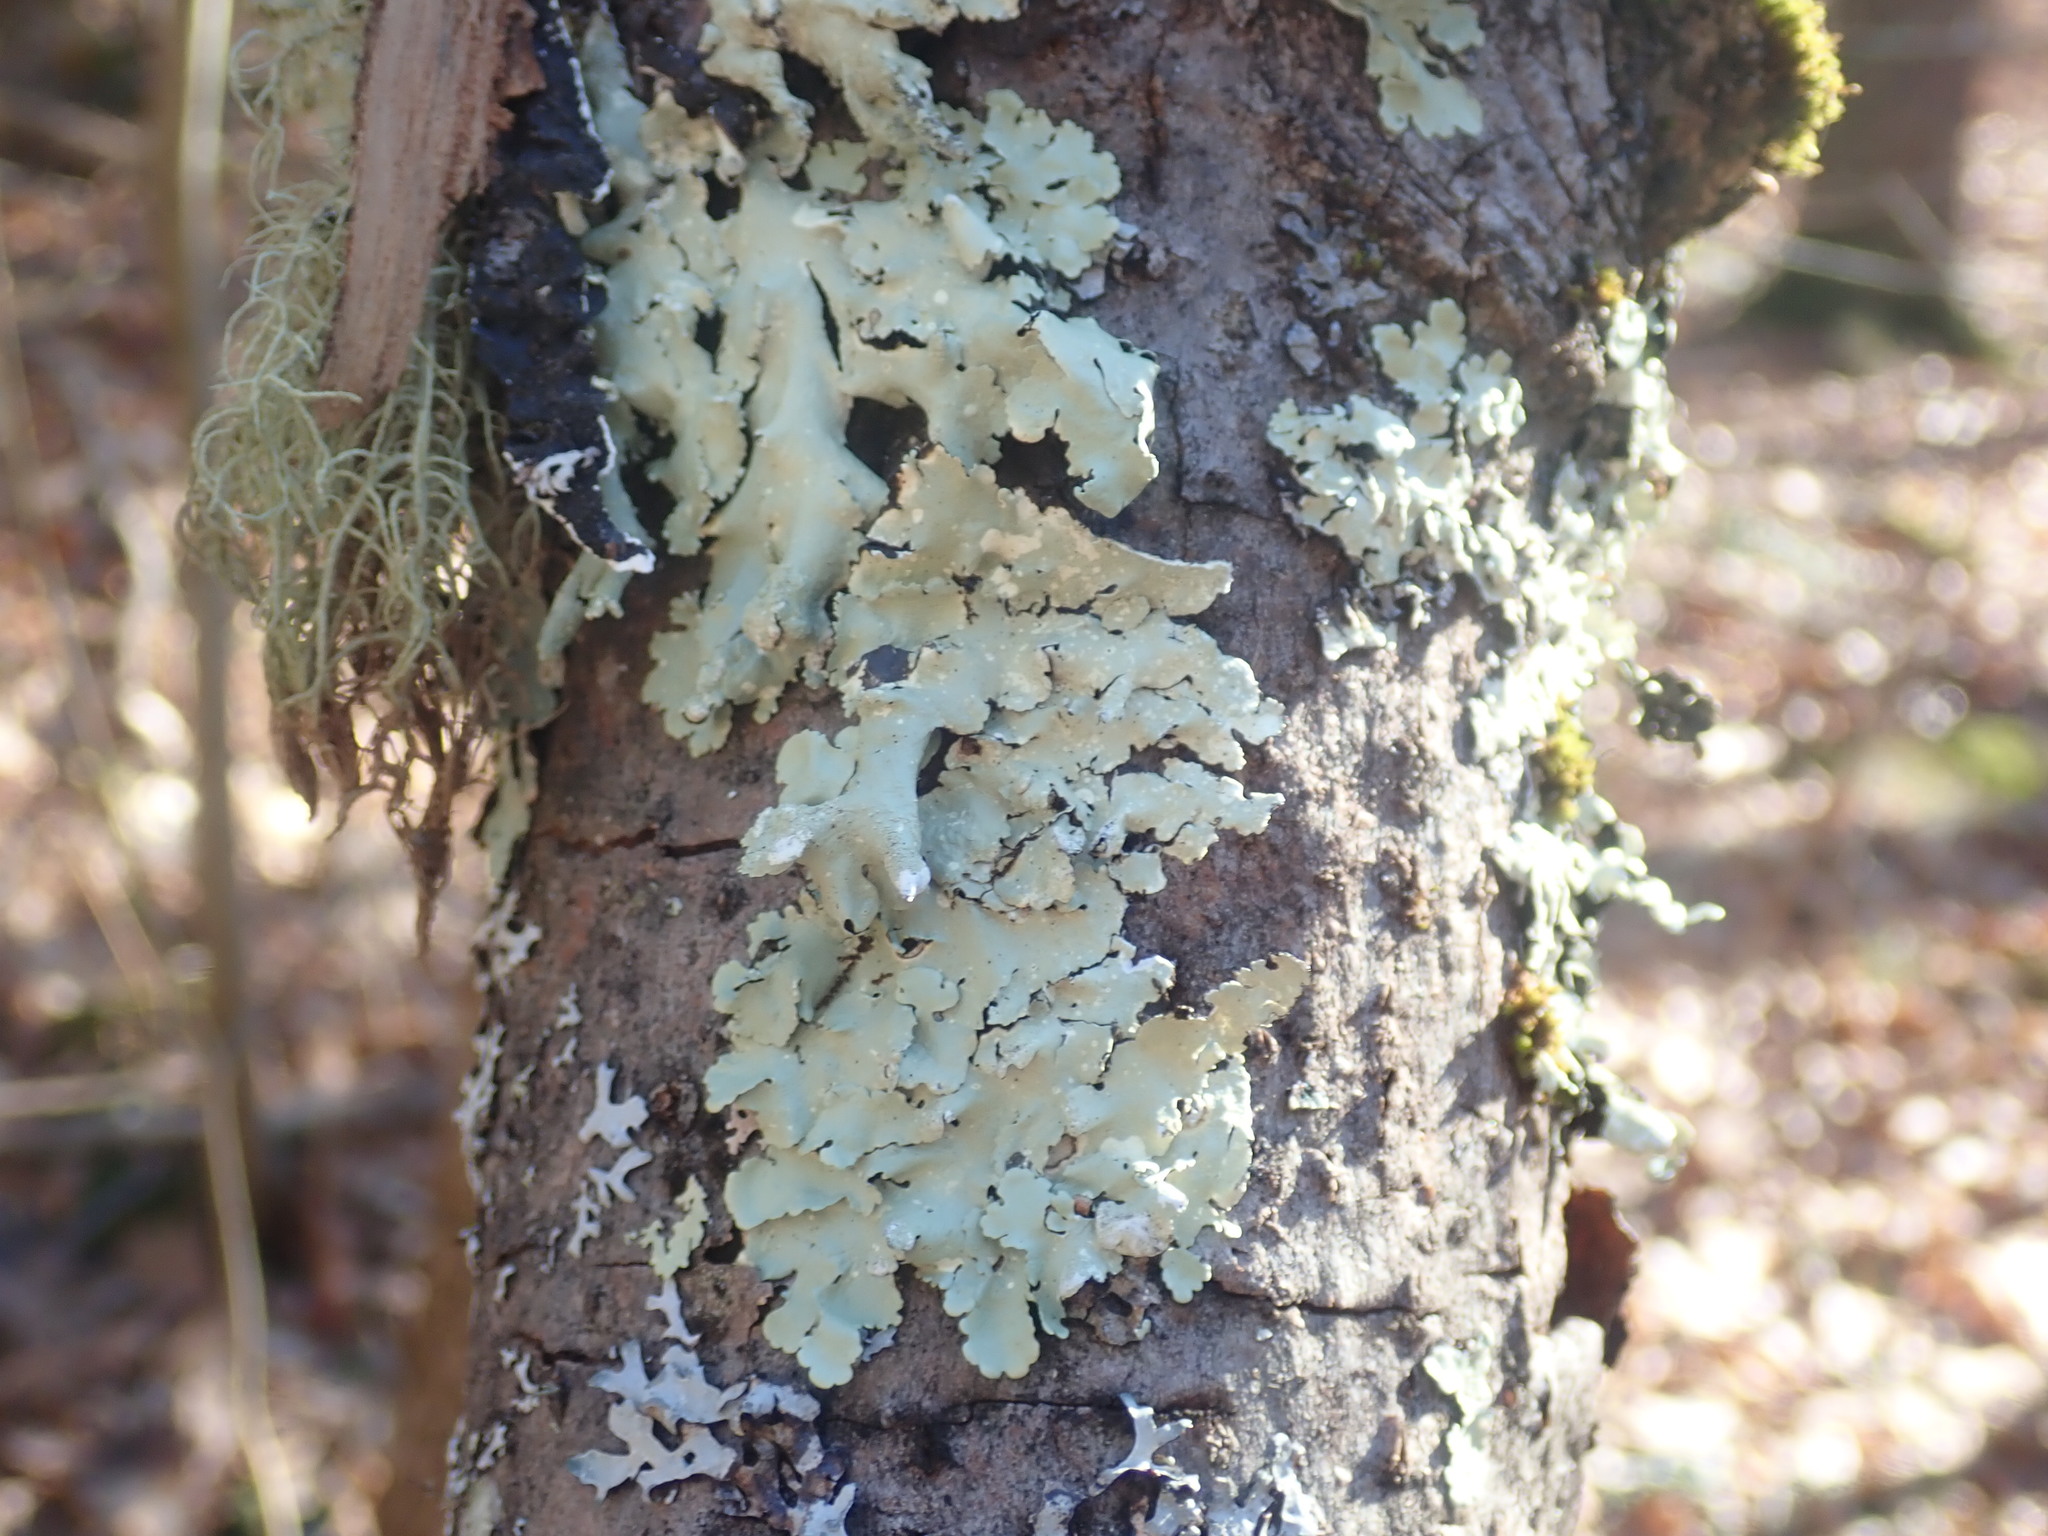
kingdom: Fungi
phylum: Ascomycota
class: Lecanoromycetes
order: Lecanorales
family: Parmeliaceae
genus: Flavoparmelia
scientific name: Flavoparmelia caperata
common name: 40-mile per hour lichen
